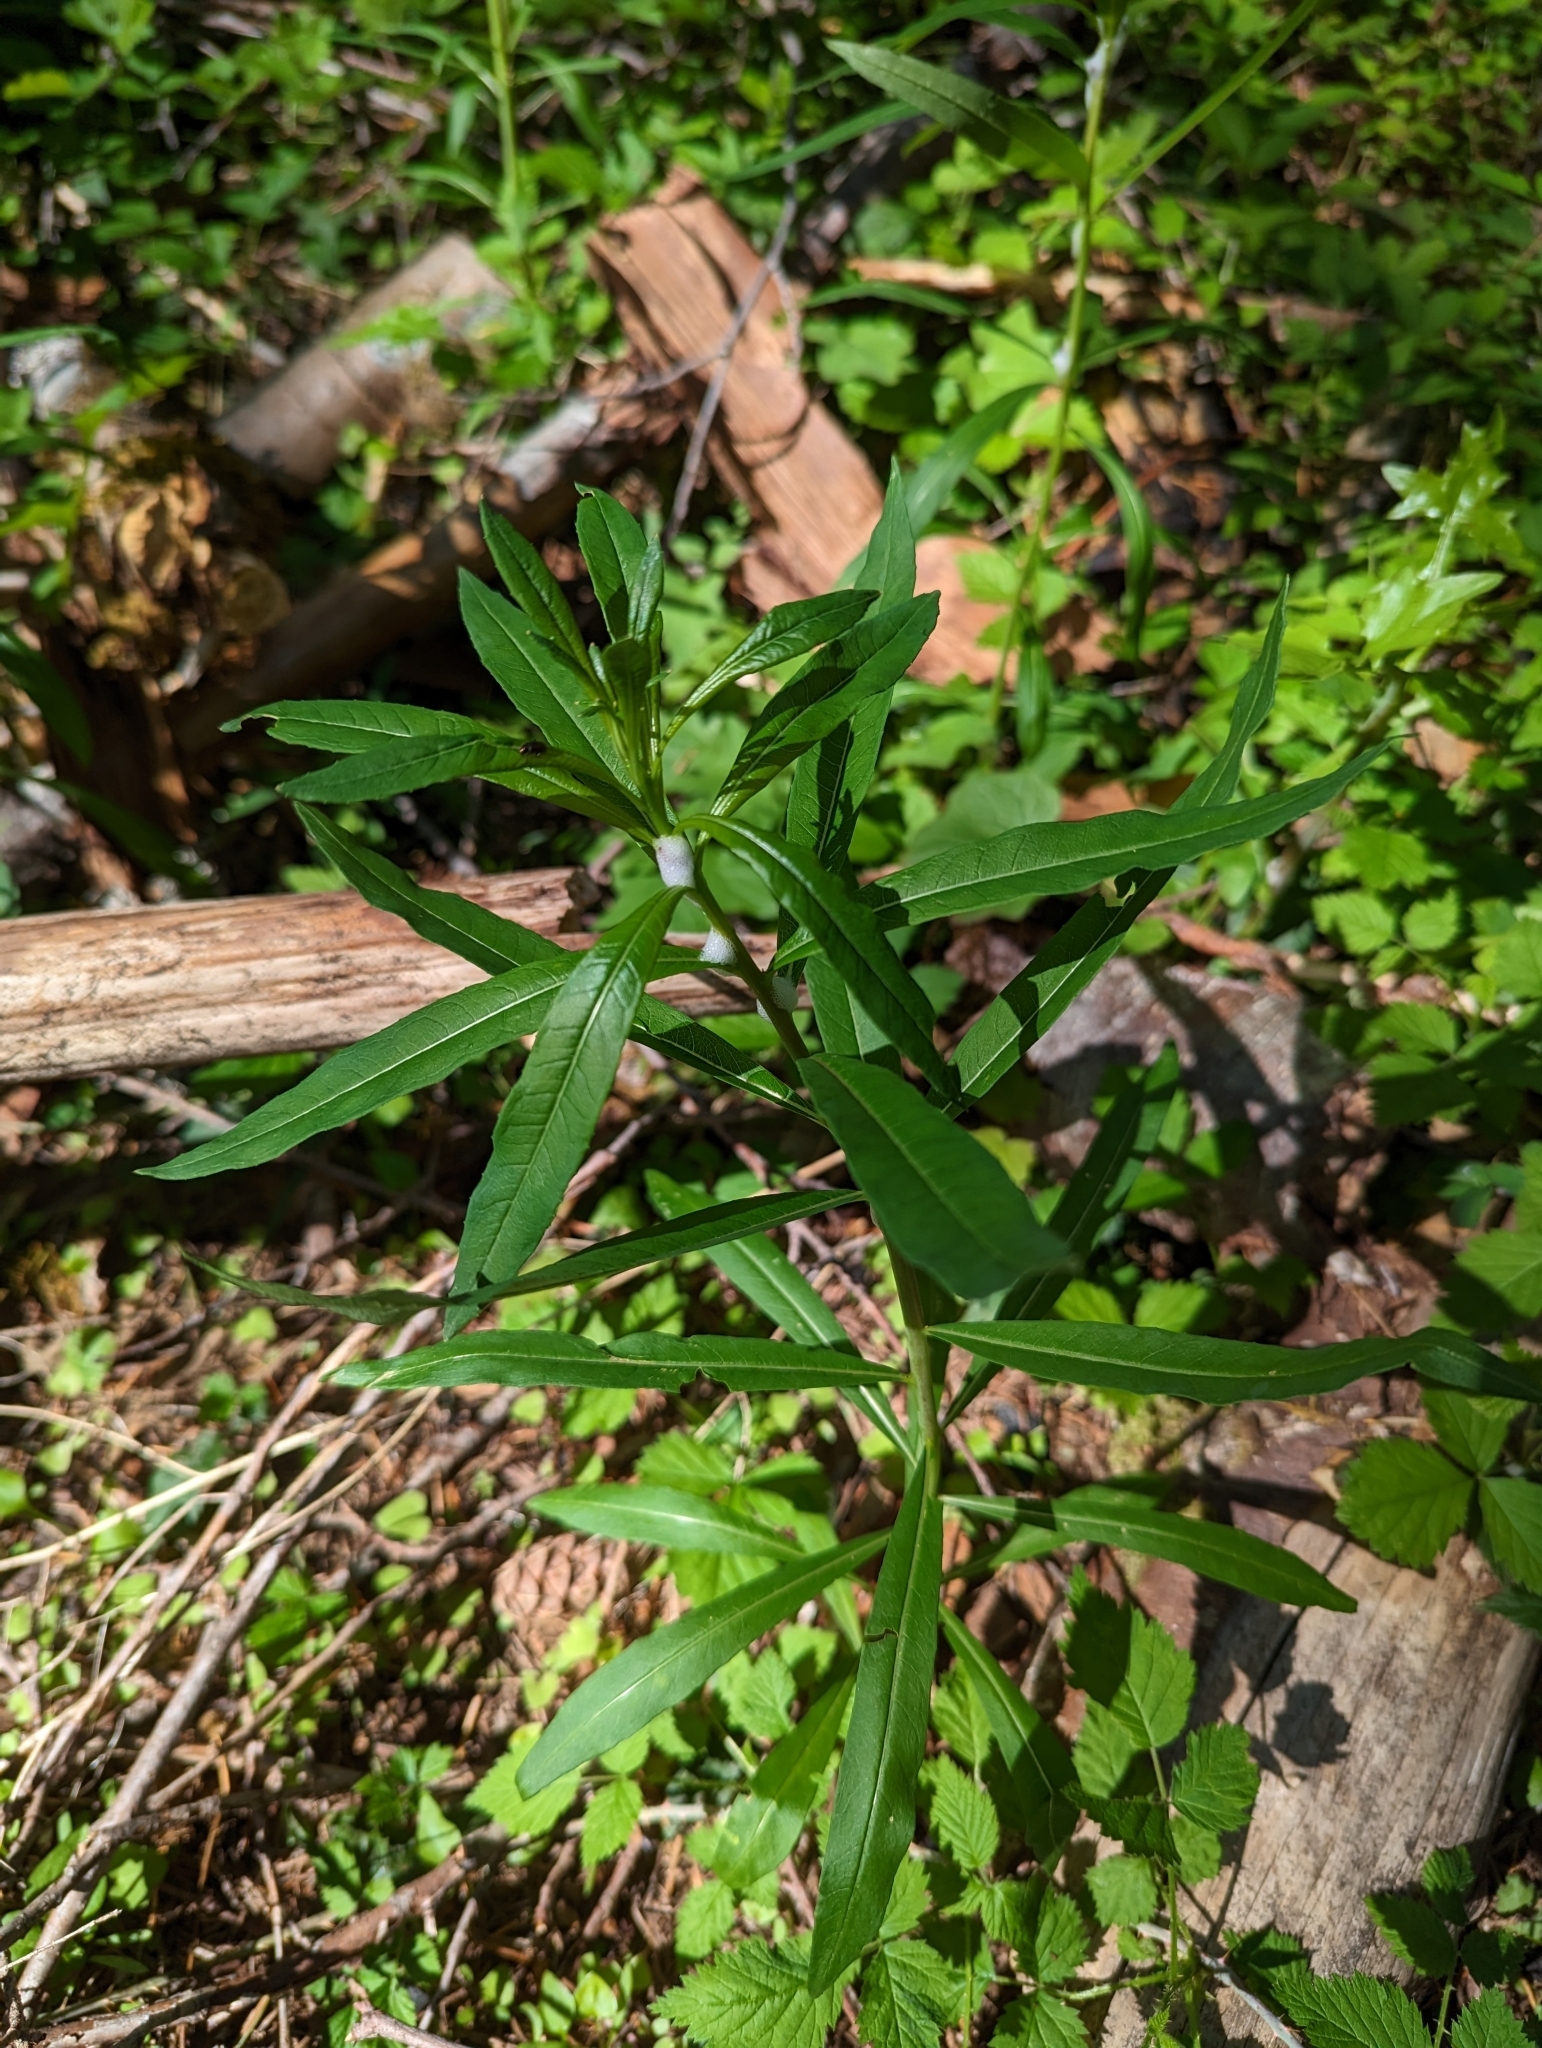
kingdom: Plantae
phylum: Tracheophyta
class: Magnoliopsida
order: Myrtales
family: Onagraceae
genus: Chamaenerion
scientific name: Chamaenerion angustifolium
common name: Fireweed
